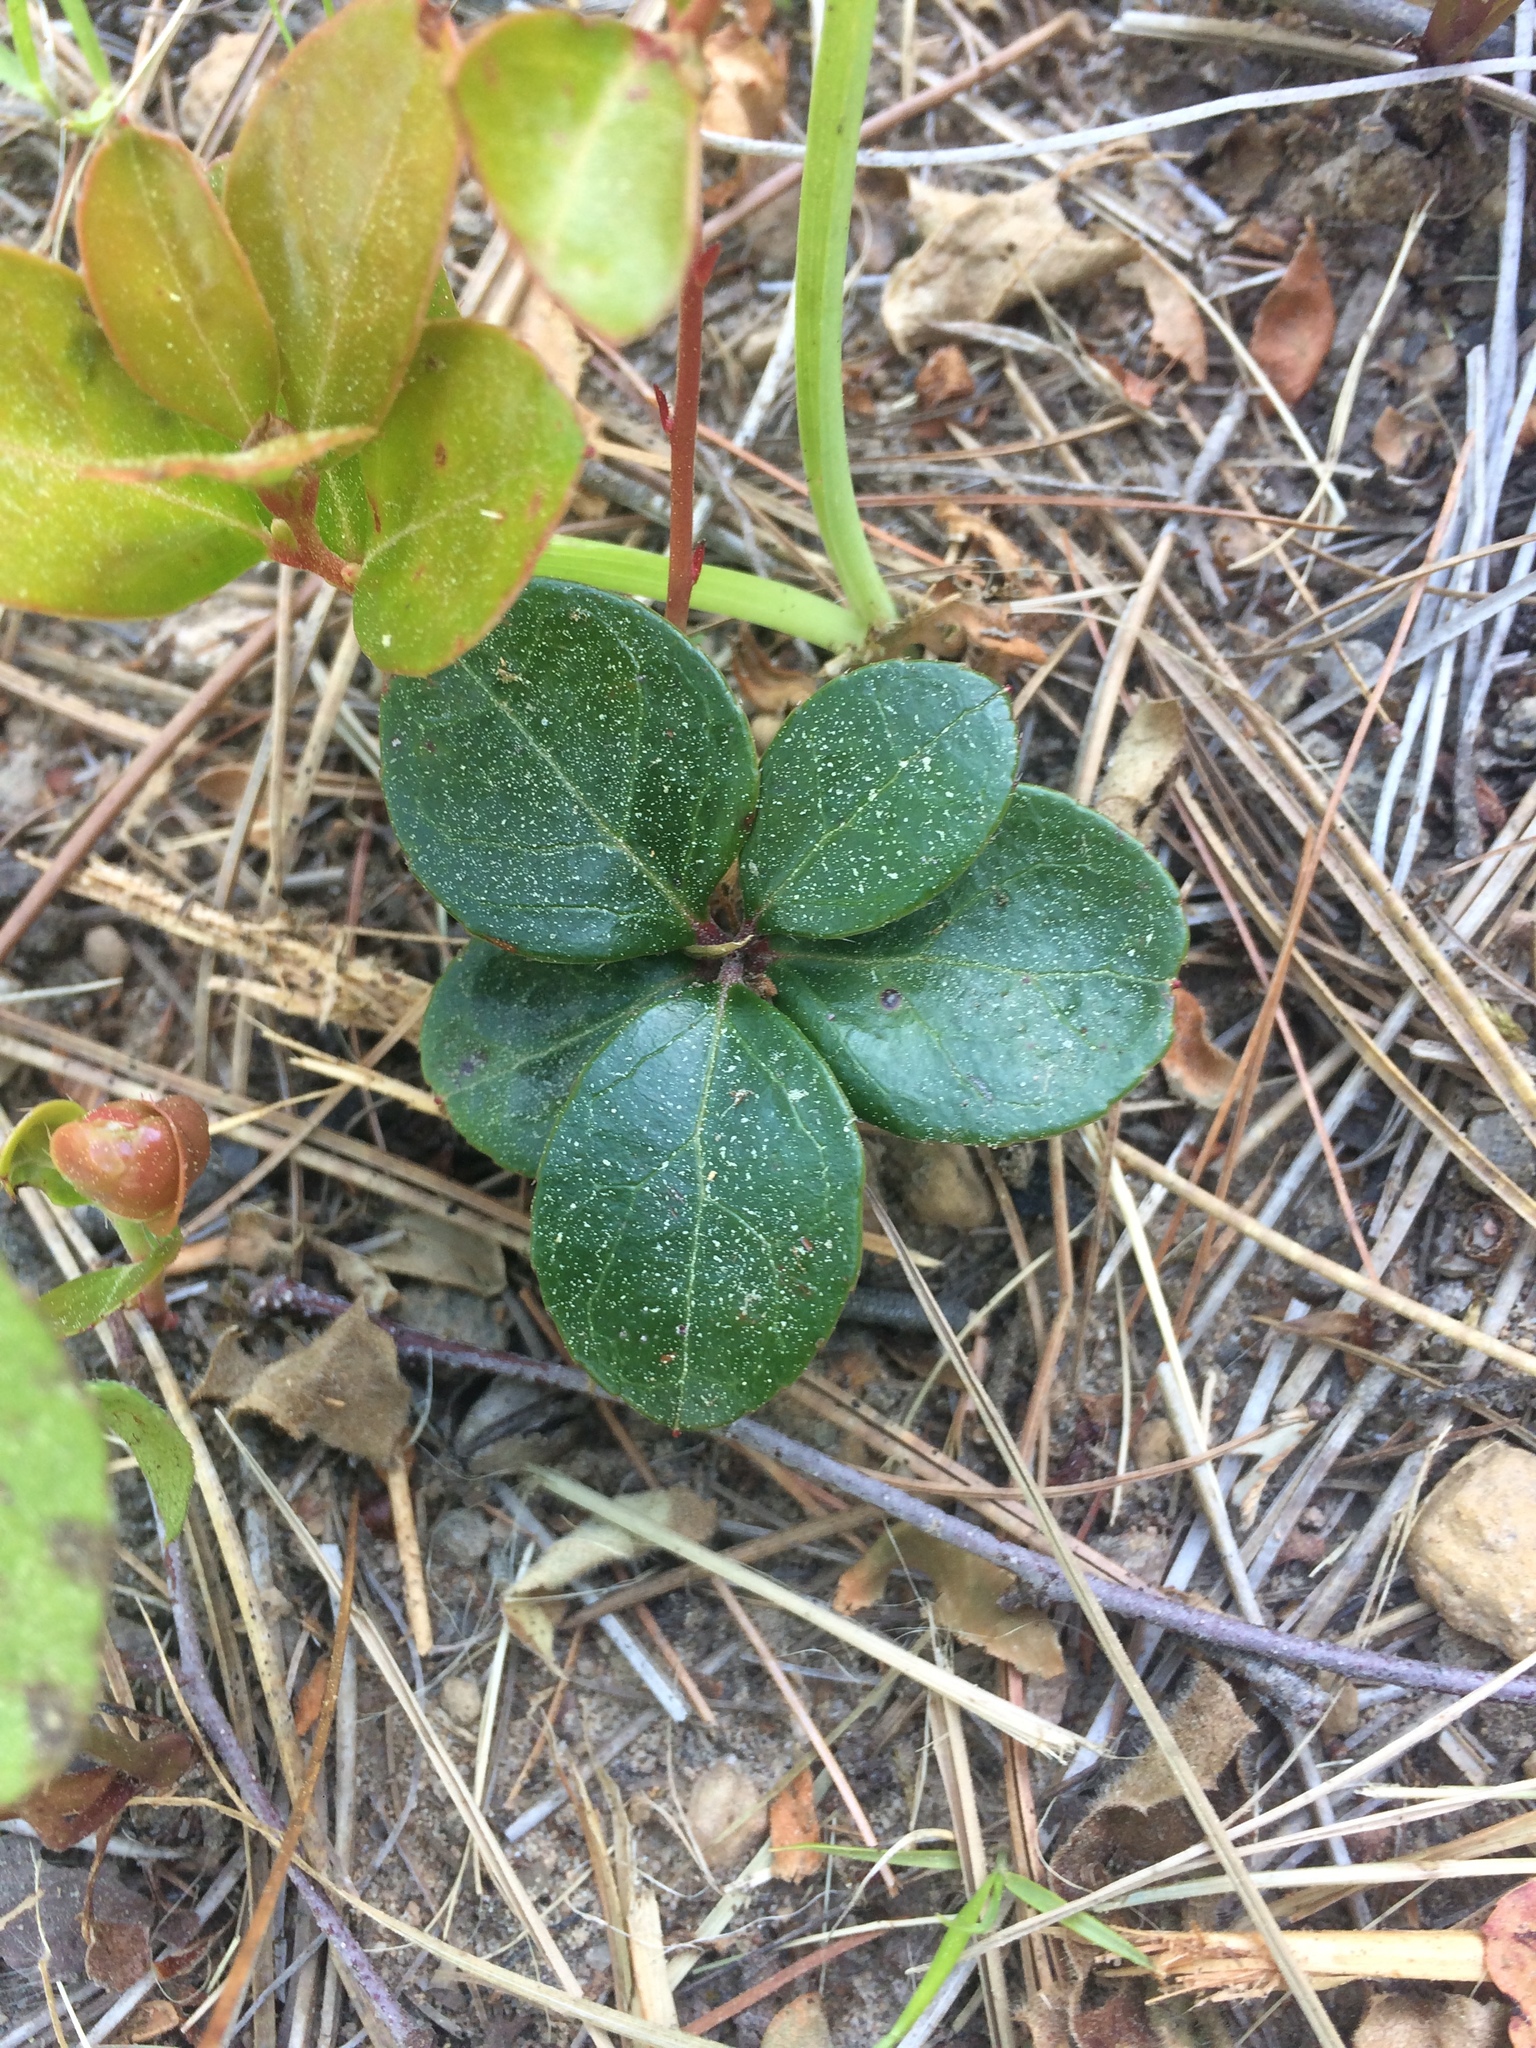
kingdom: Plantae
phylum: Tracheophyta
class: Magnoliopsida
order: Ericales
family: Ericaceae
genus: Gaultheria
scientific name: Gaultheria procumbens
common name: Checkerberry
